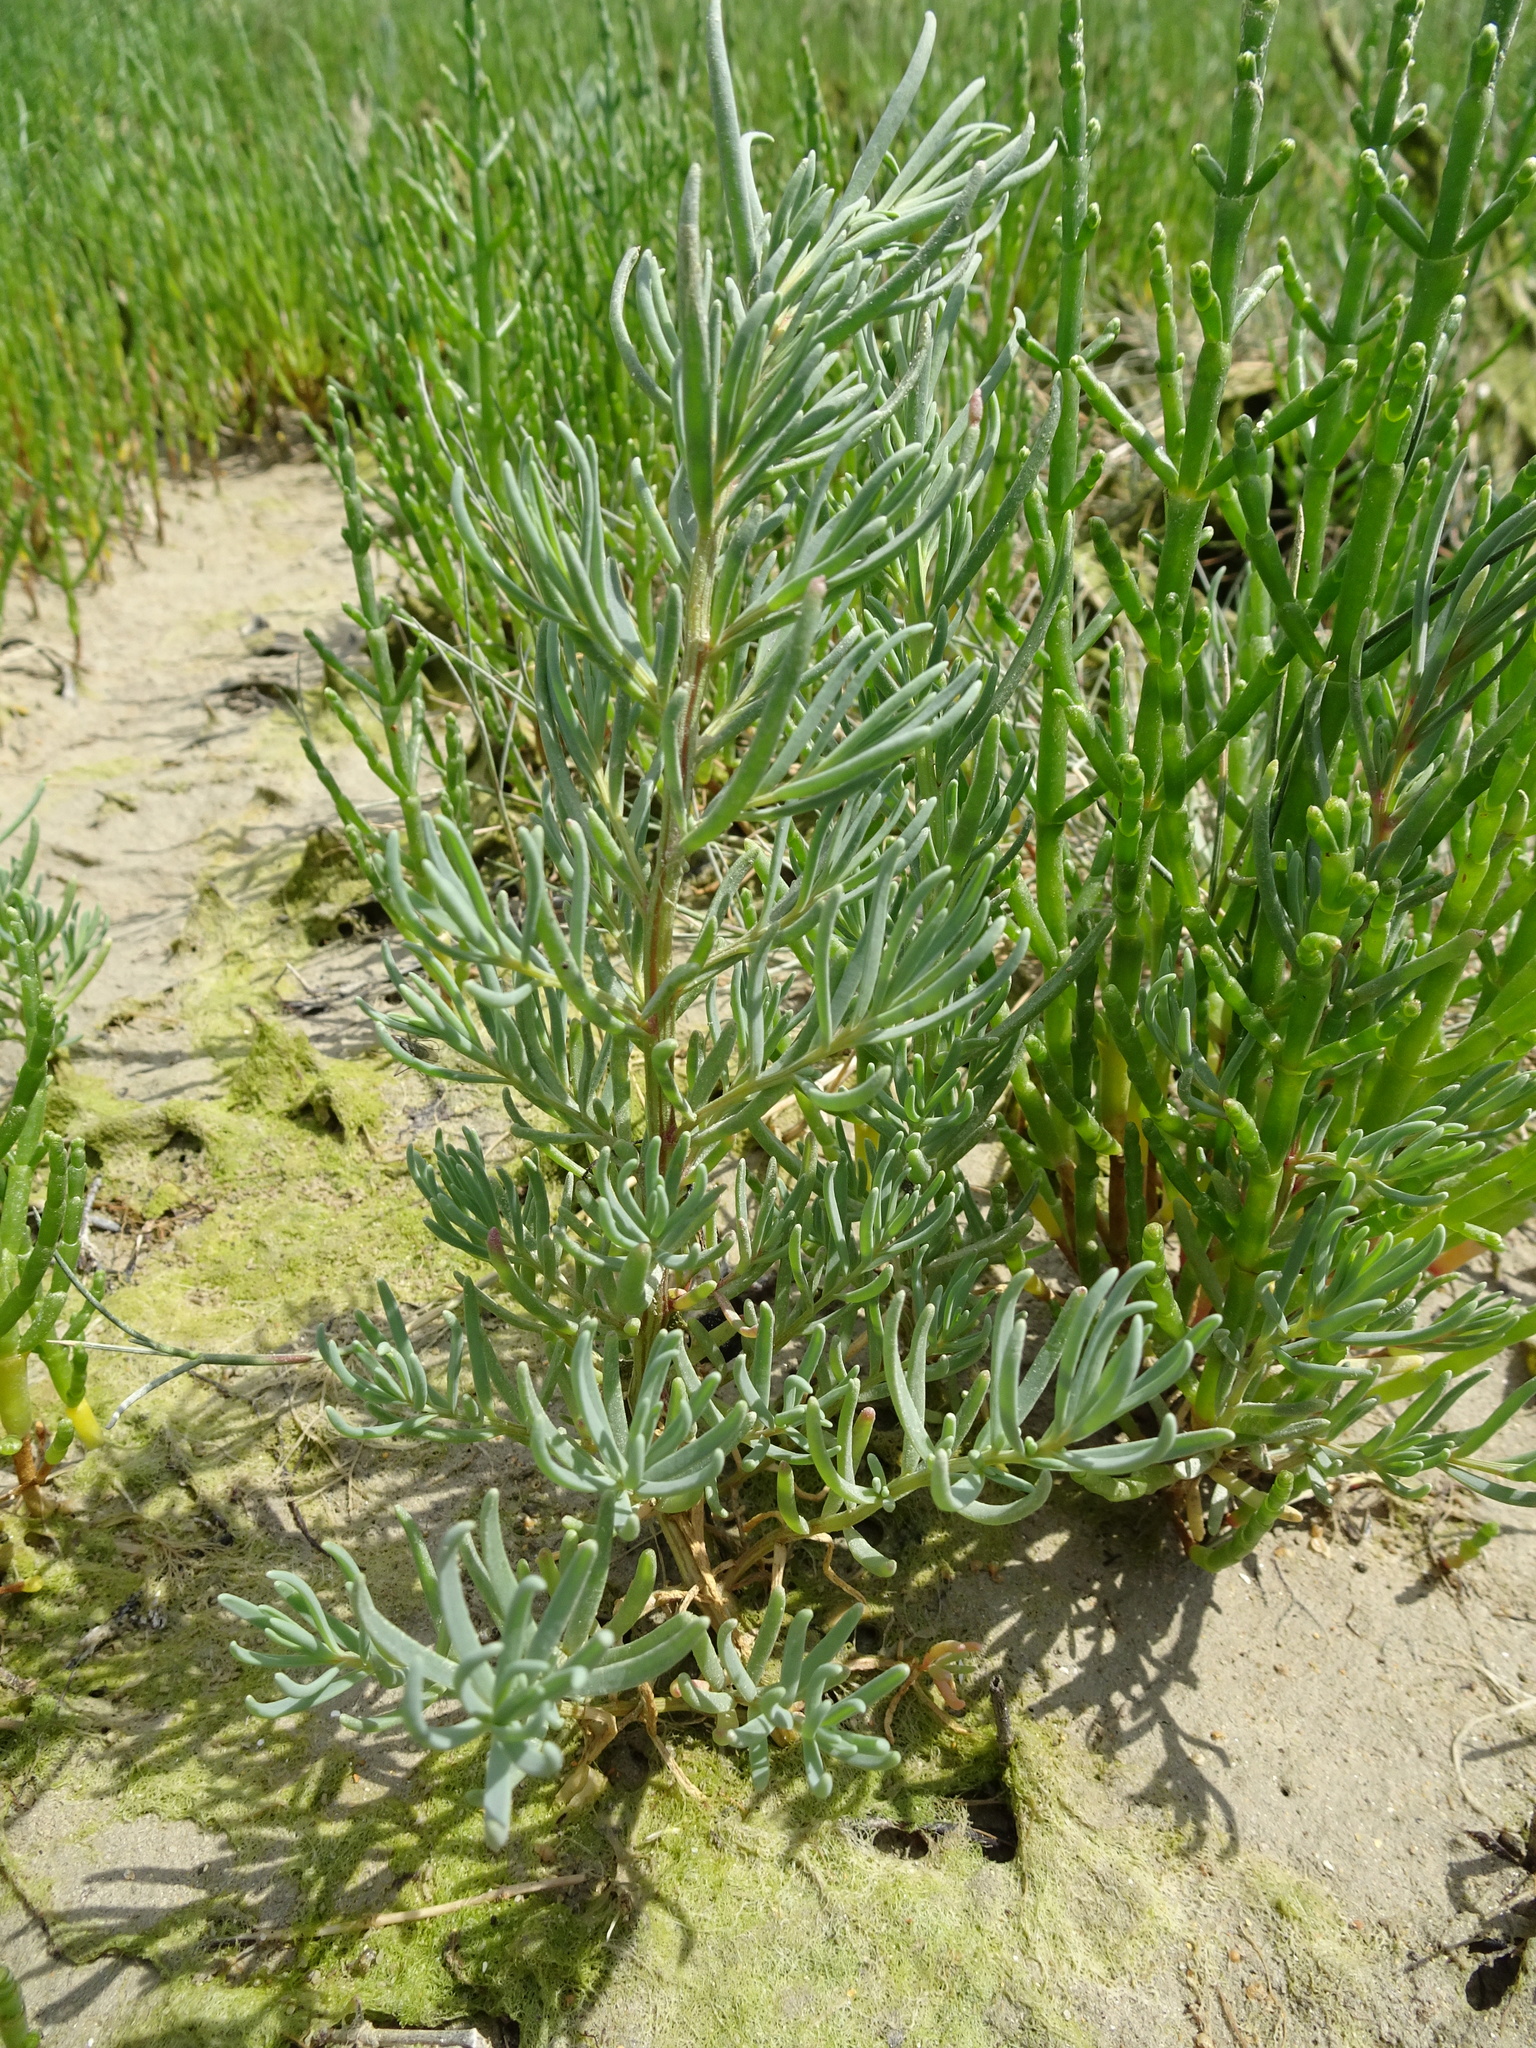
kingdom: Plantae
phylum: Tracheophyta
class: Magnoliopsida
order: Caryophyllales
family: Amaranthaceae
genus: Suaeda
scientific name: Suaeda maritima
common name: Annual sea-blite
